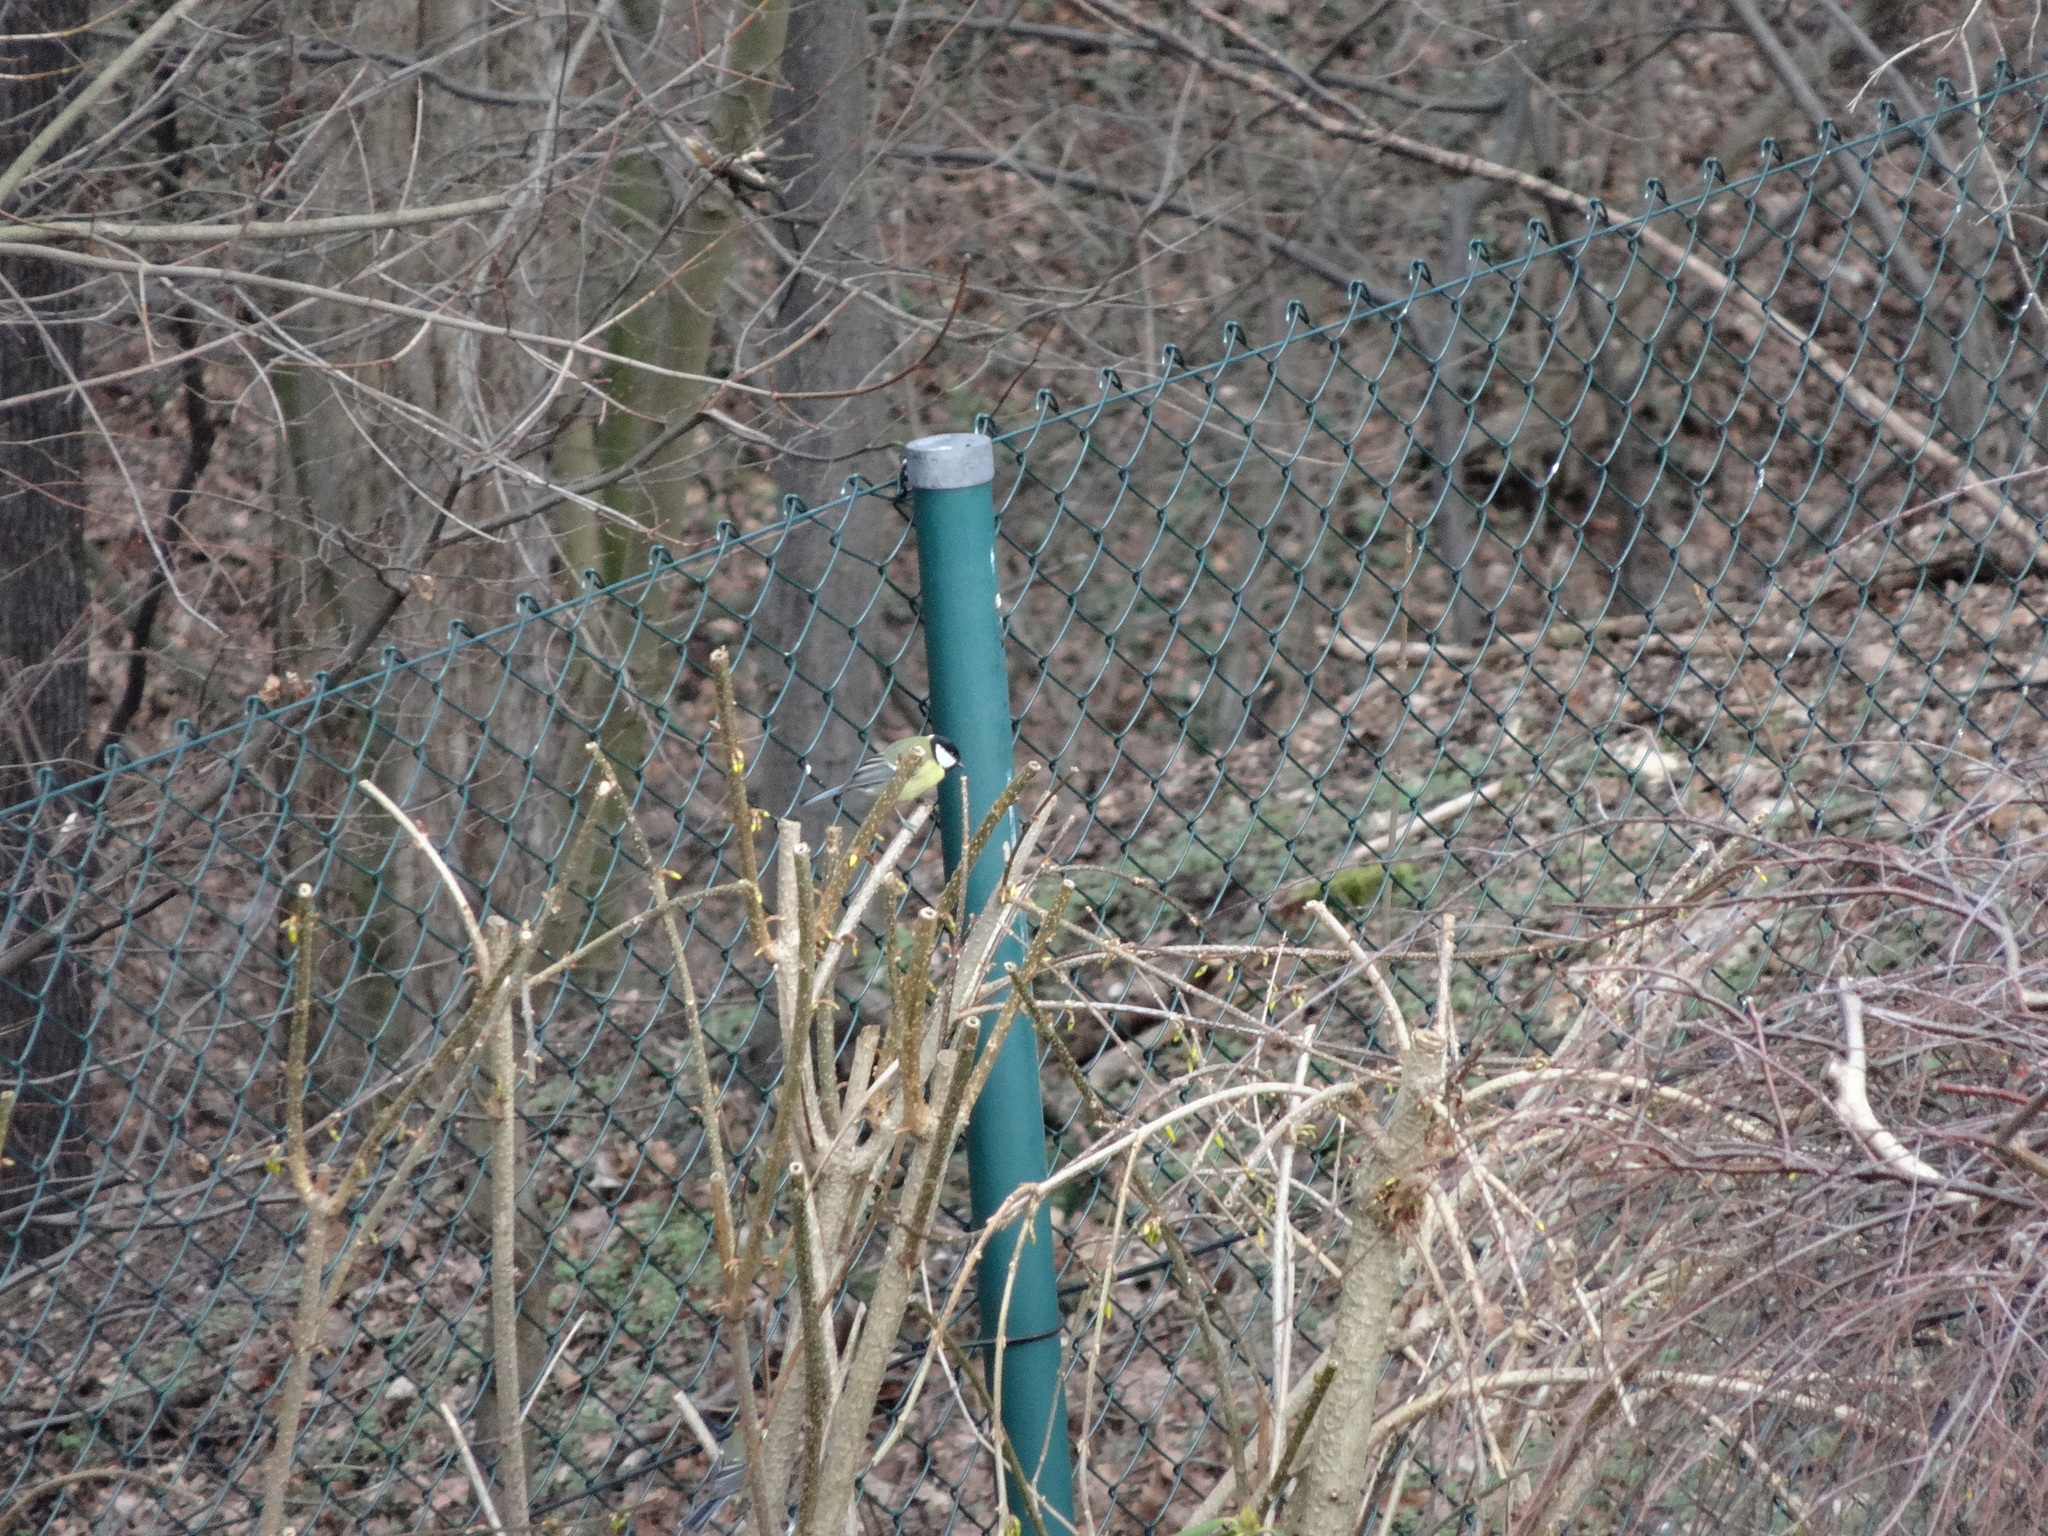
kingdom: Animalia
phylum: Chordata
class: Aves
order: Passeriformes
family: Paridae
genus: Parus
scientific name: Parus major
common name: Great tit
